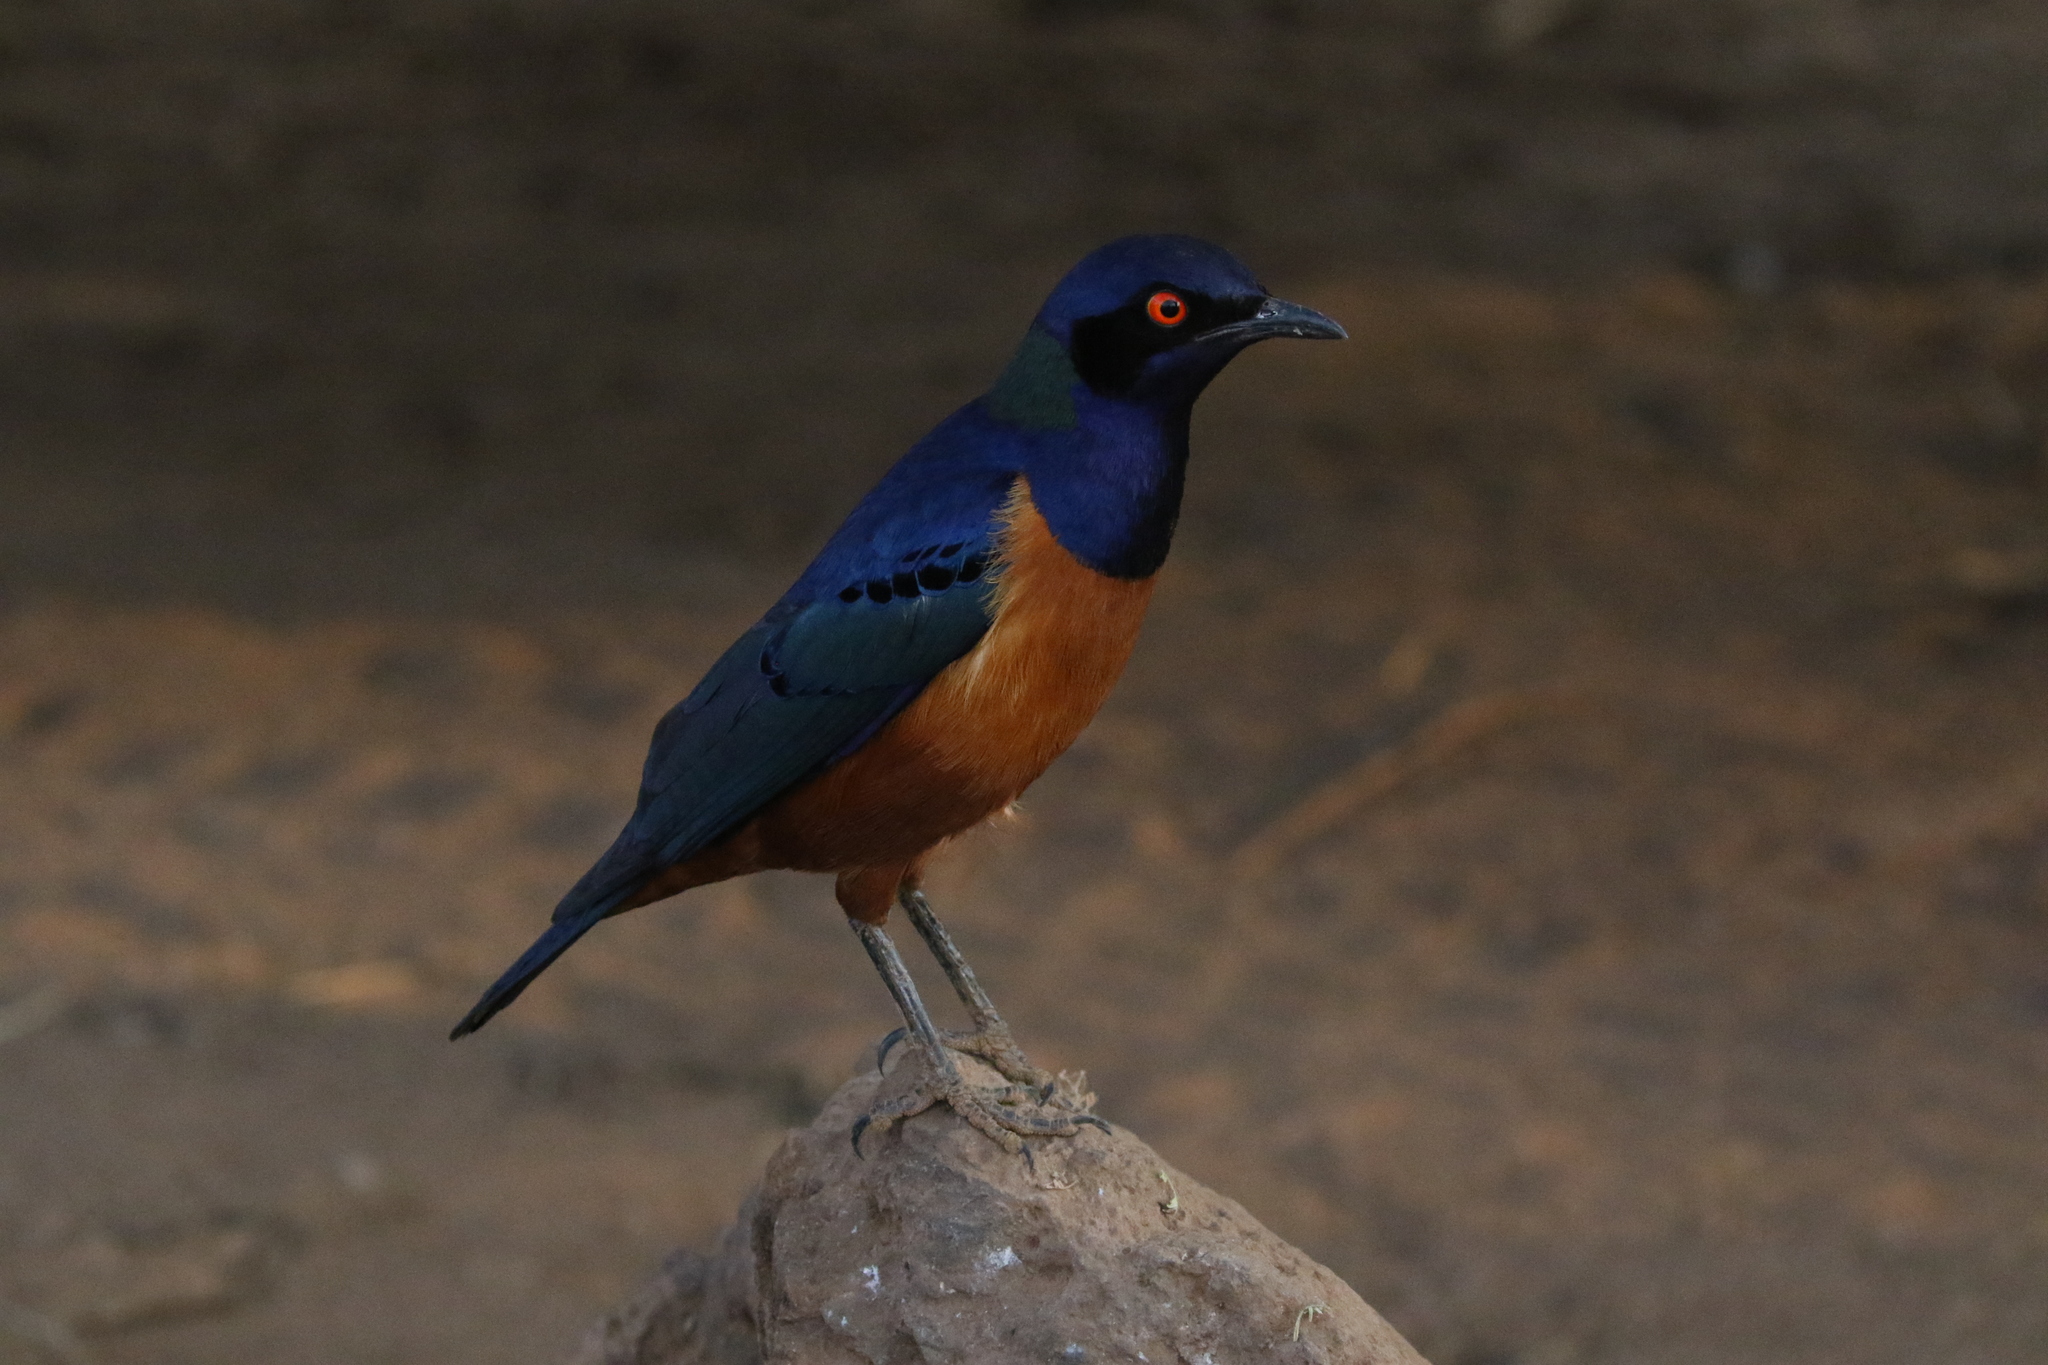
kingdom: Animalia
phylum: Chordata
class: Aves
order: Passeriformes
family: Sturnidae
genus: Lamprotornis
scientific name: Lamprotornis hildebrandti
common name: Hildebrandt's starling
